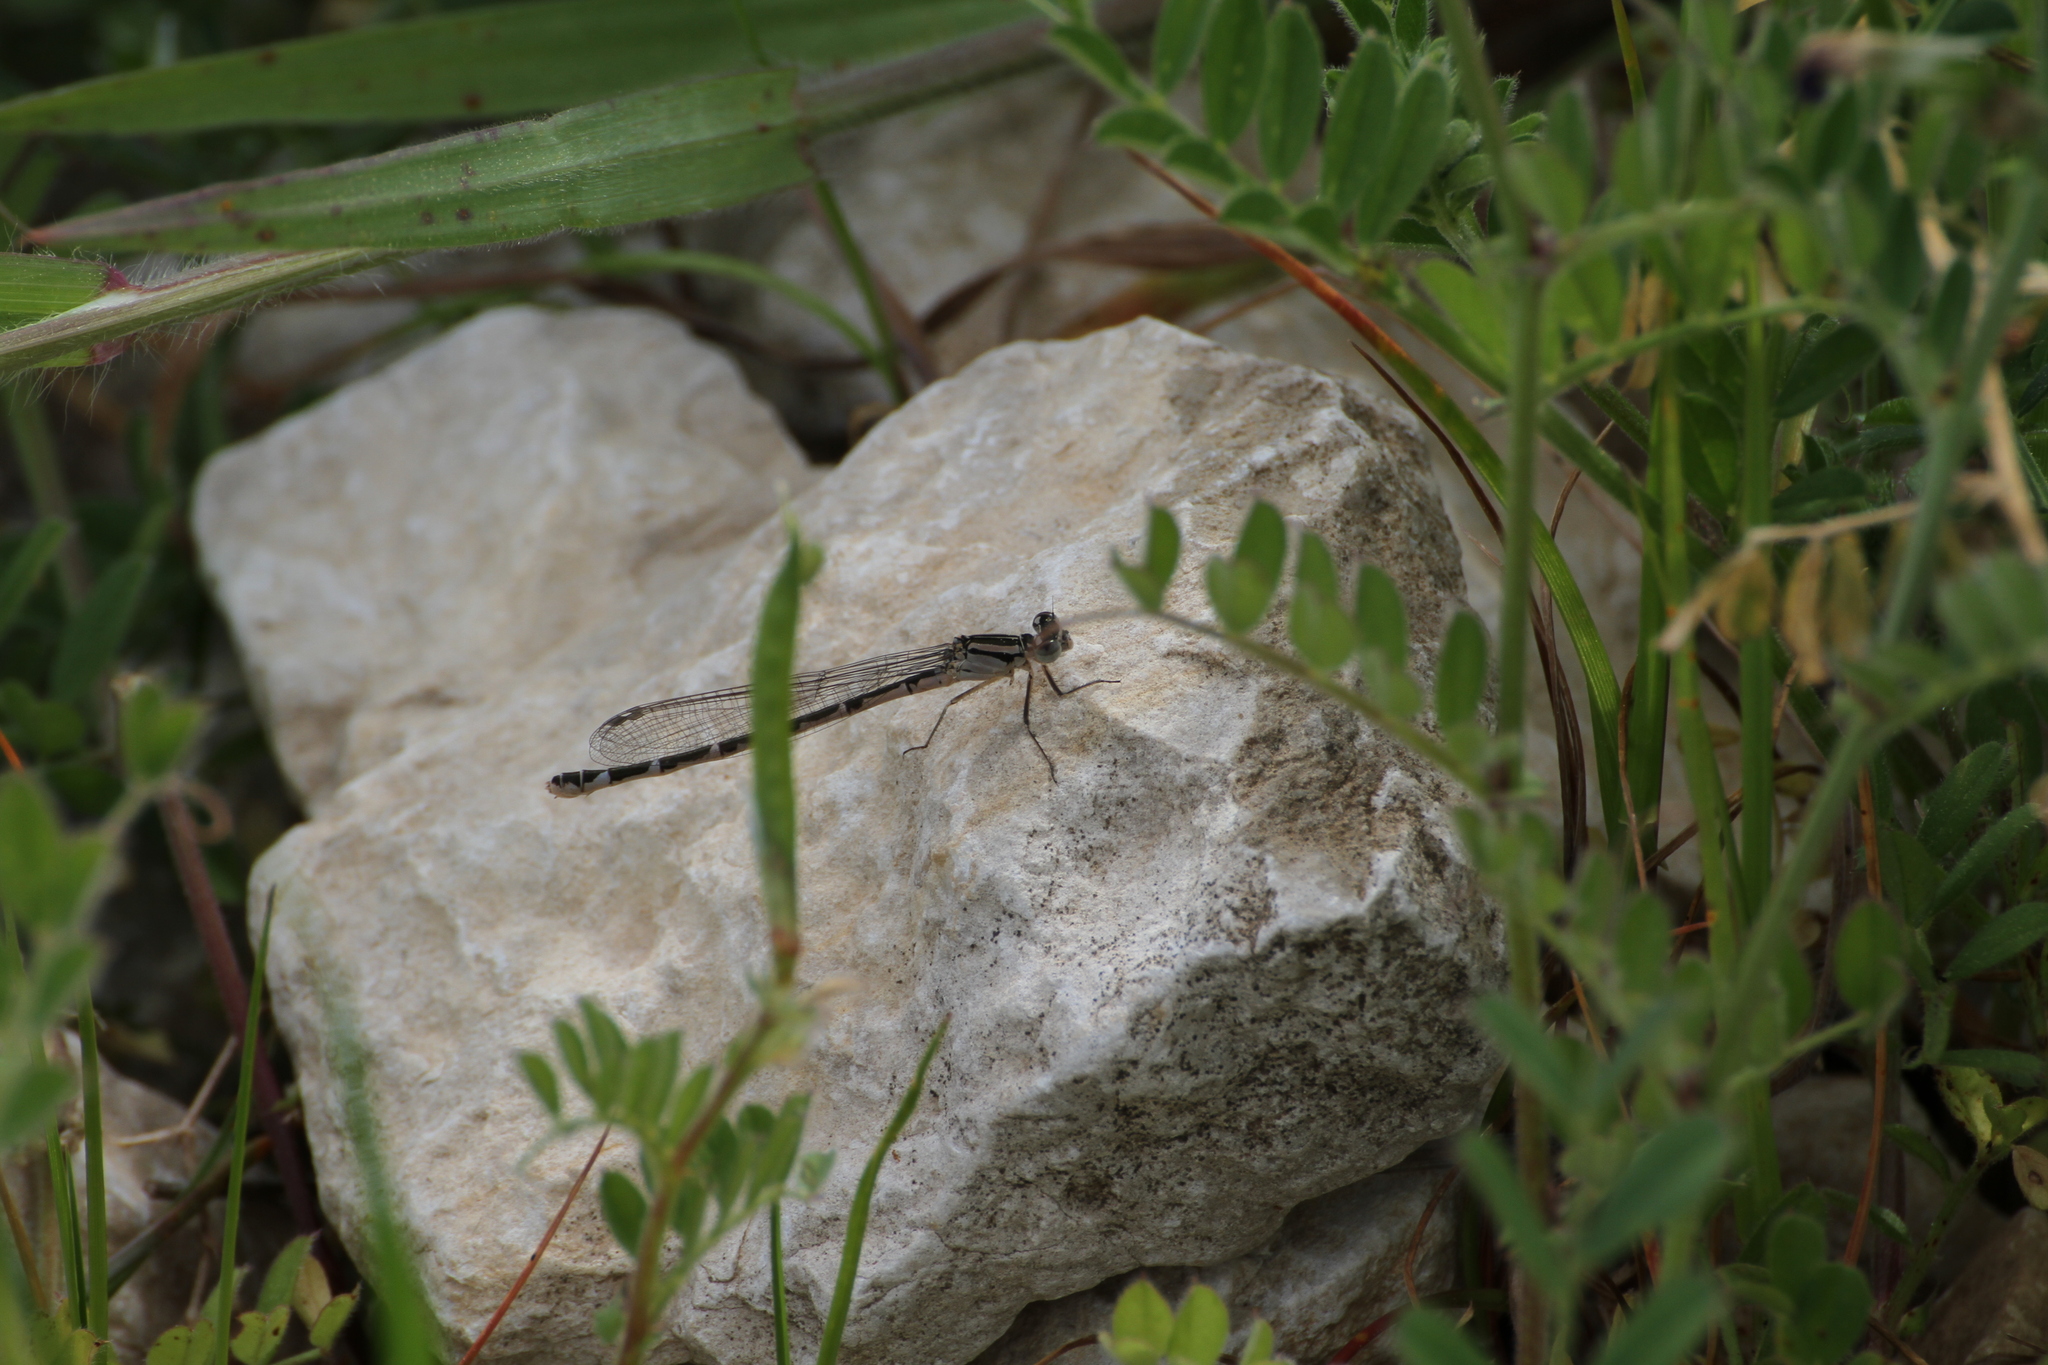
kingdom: Animalia
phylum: Arthropoda
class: Insecta
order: Odonata
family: Coenagrionidae
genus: Enallagma
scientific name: Enallagma cyathigerum
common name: Common blue damselfly
